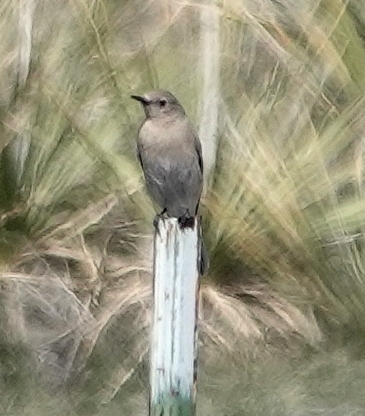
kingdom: Animalia
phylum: Chordata
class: Aves
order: Passeriformes
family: Turdidae
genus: Sialia
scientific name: Sialia currucoides
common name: Mountain bluebird
